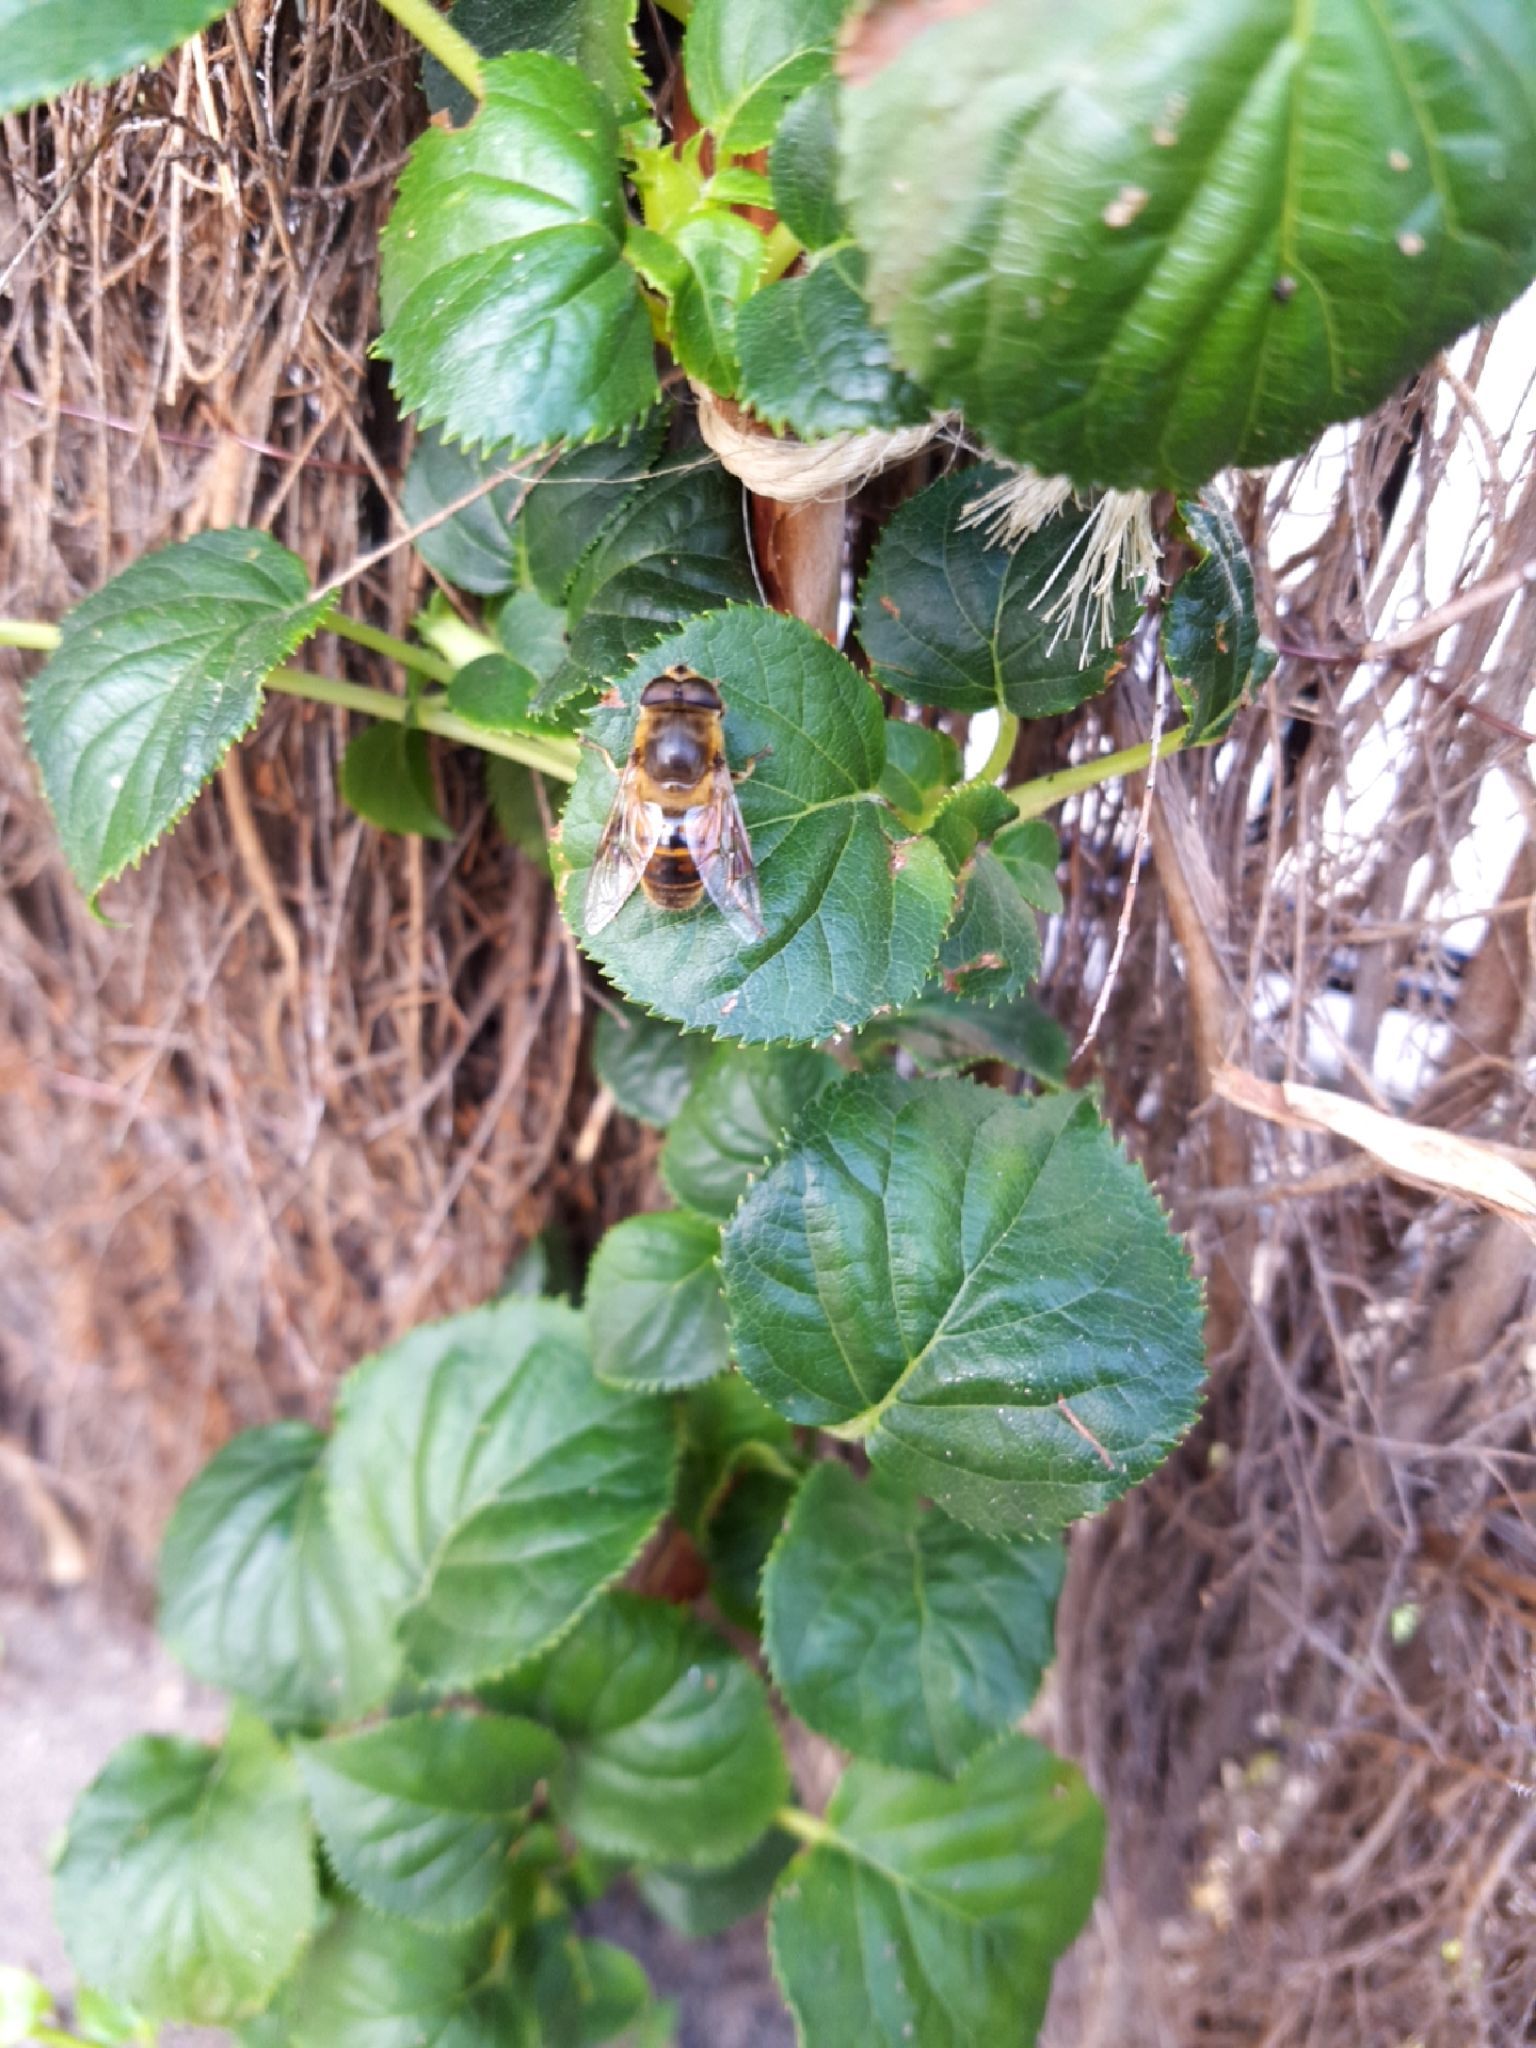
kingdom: Animalia
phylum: Arthropoda
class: Insecta
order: Diptera
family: Syrphidae
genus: Eristalis
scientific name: Eristalis tenax
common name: Drone fly
